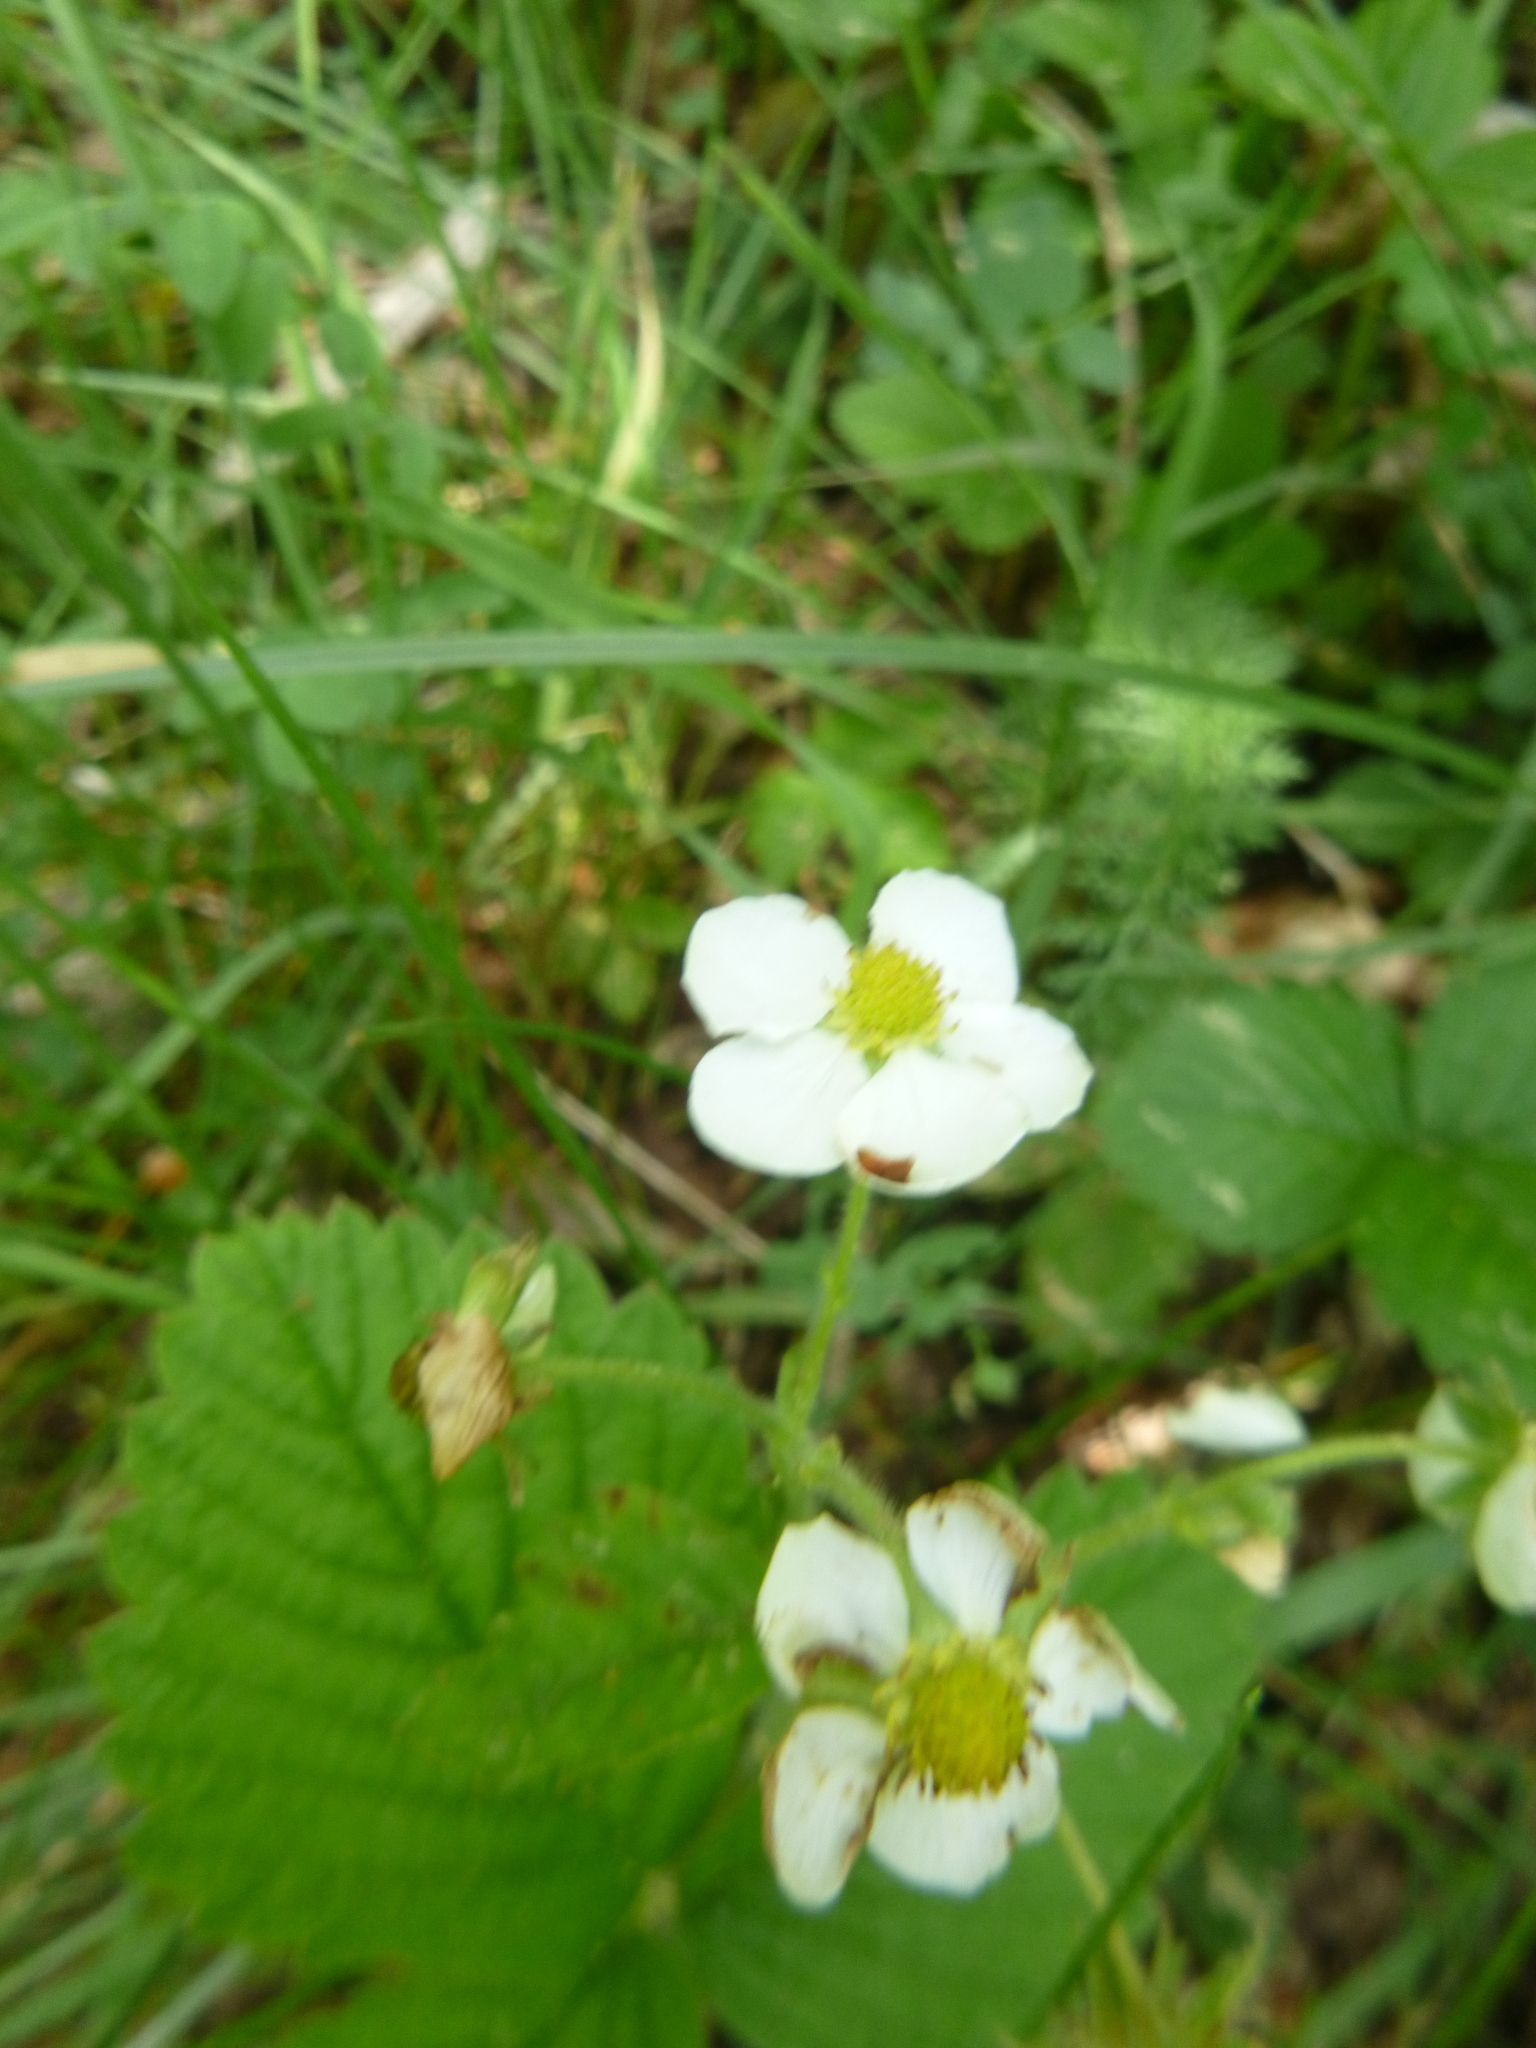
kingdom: Plantae
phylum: Tracheophyta
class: Magnoliopsida
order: Rosales
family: Rosaceae
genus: Fragaria
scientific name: Fragaria moschata
